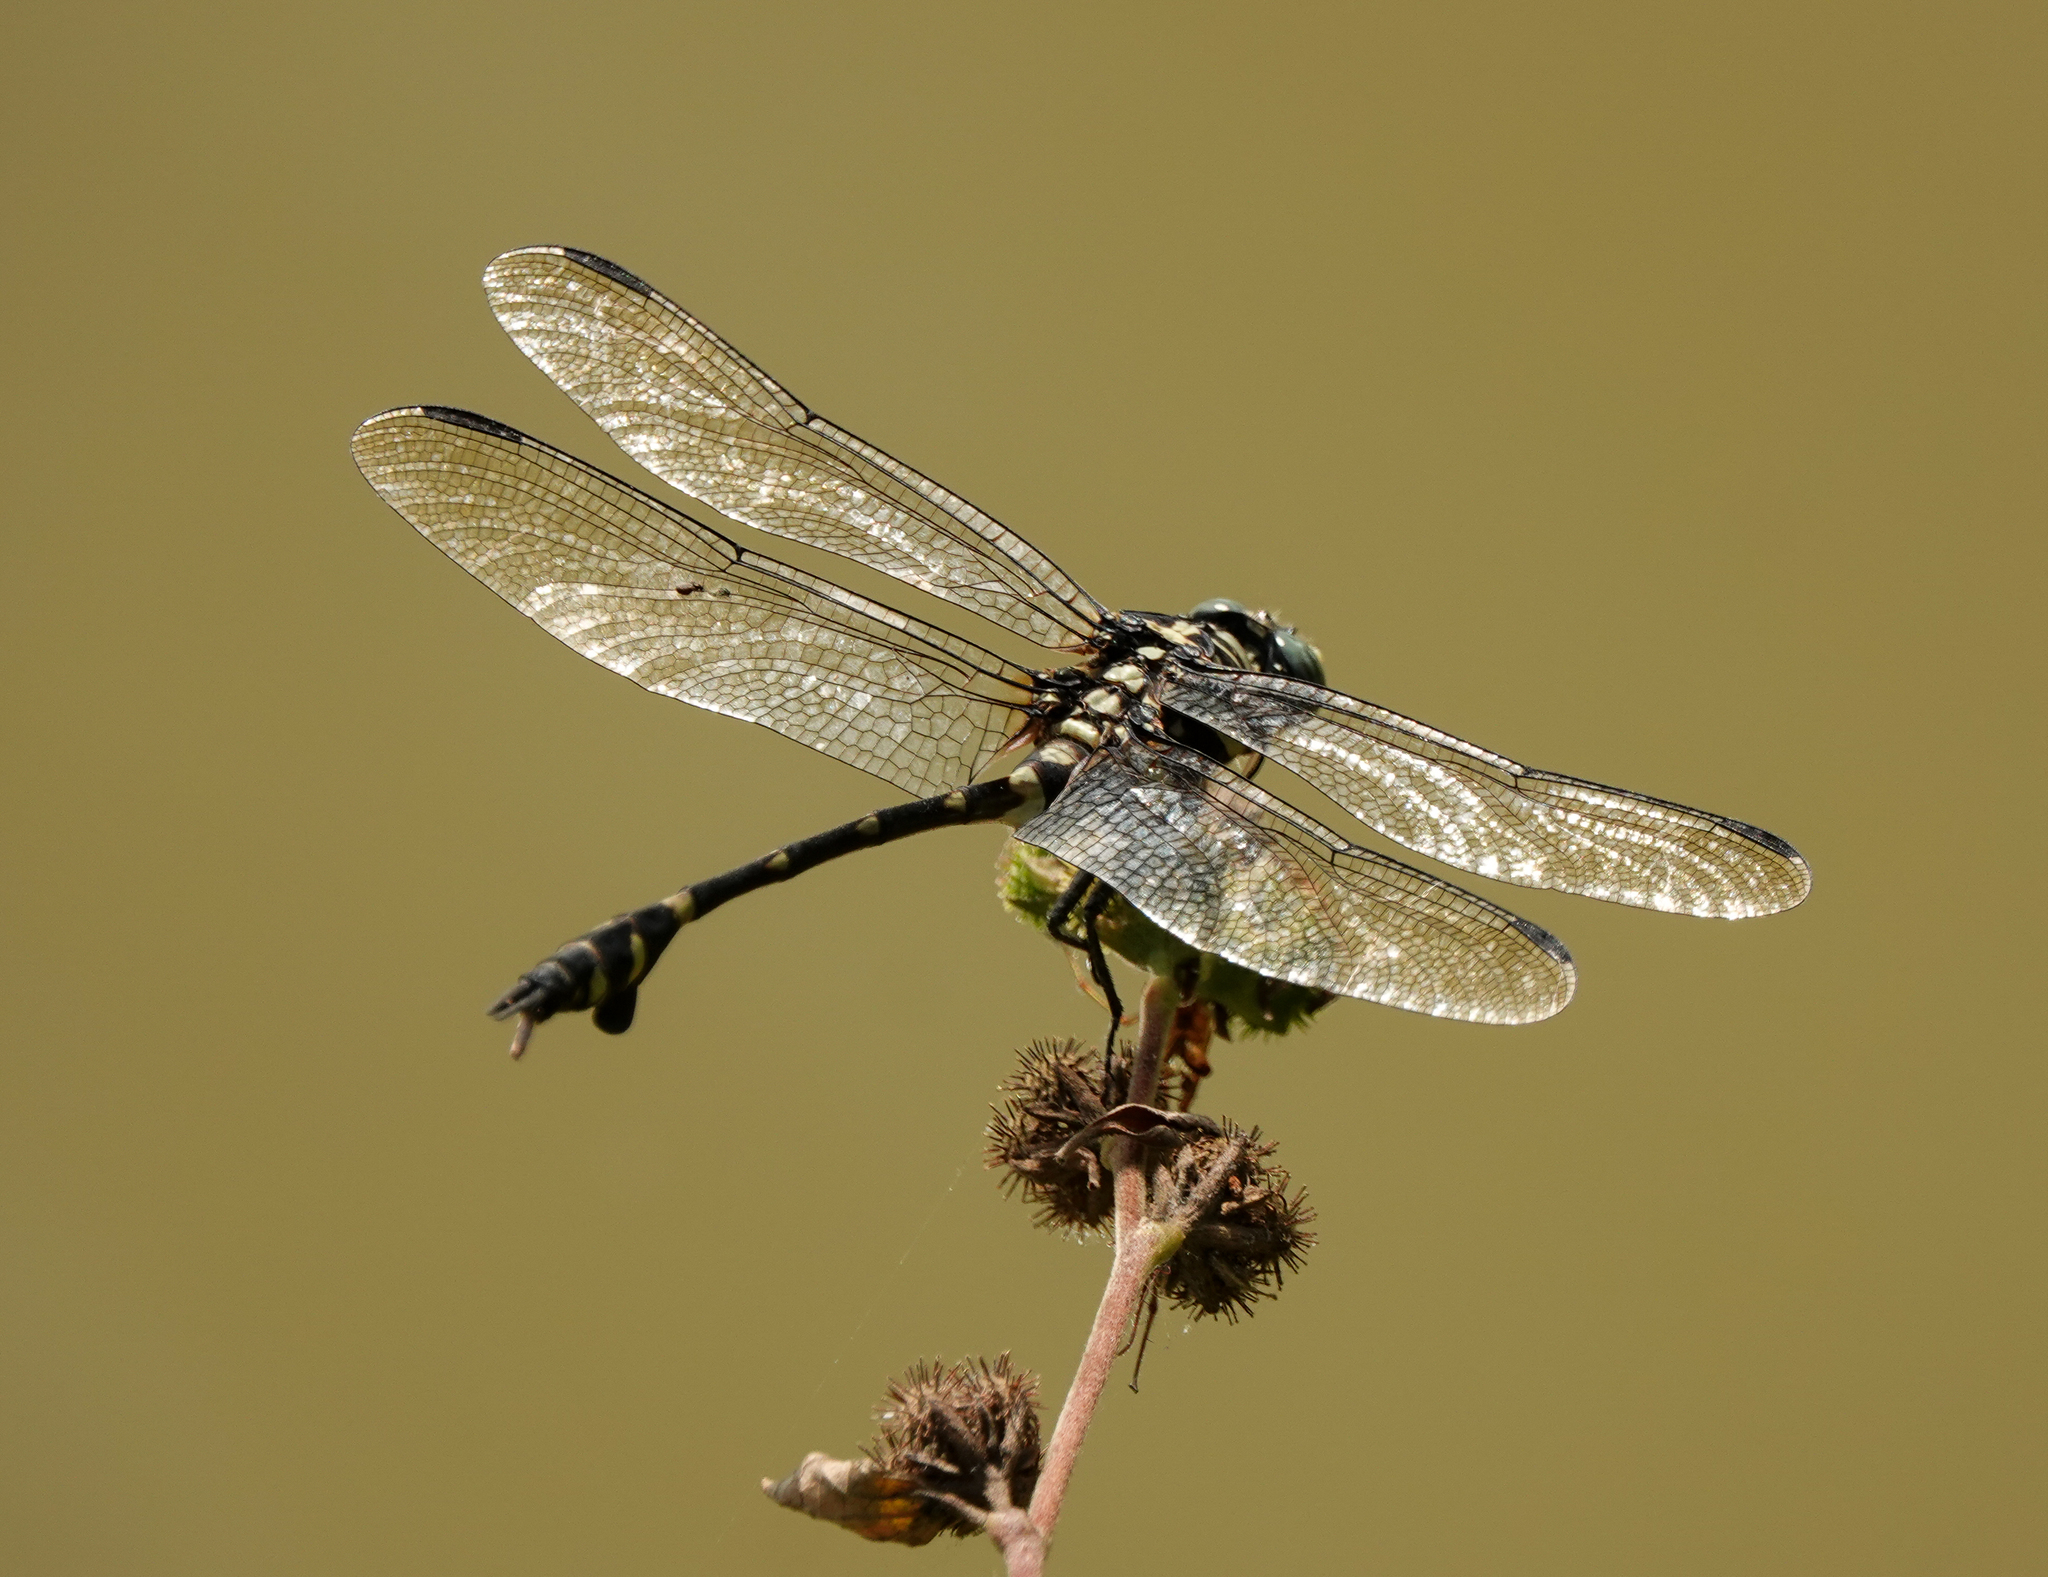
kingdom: Animalia
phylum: Arthropoda
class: Insecta
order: Odonata
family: Gomphidae
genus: Ictinogomphus
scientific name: Ictinogomphus decoratus
